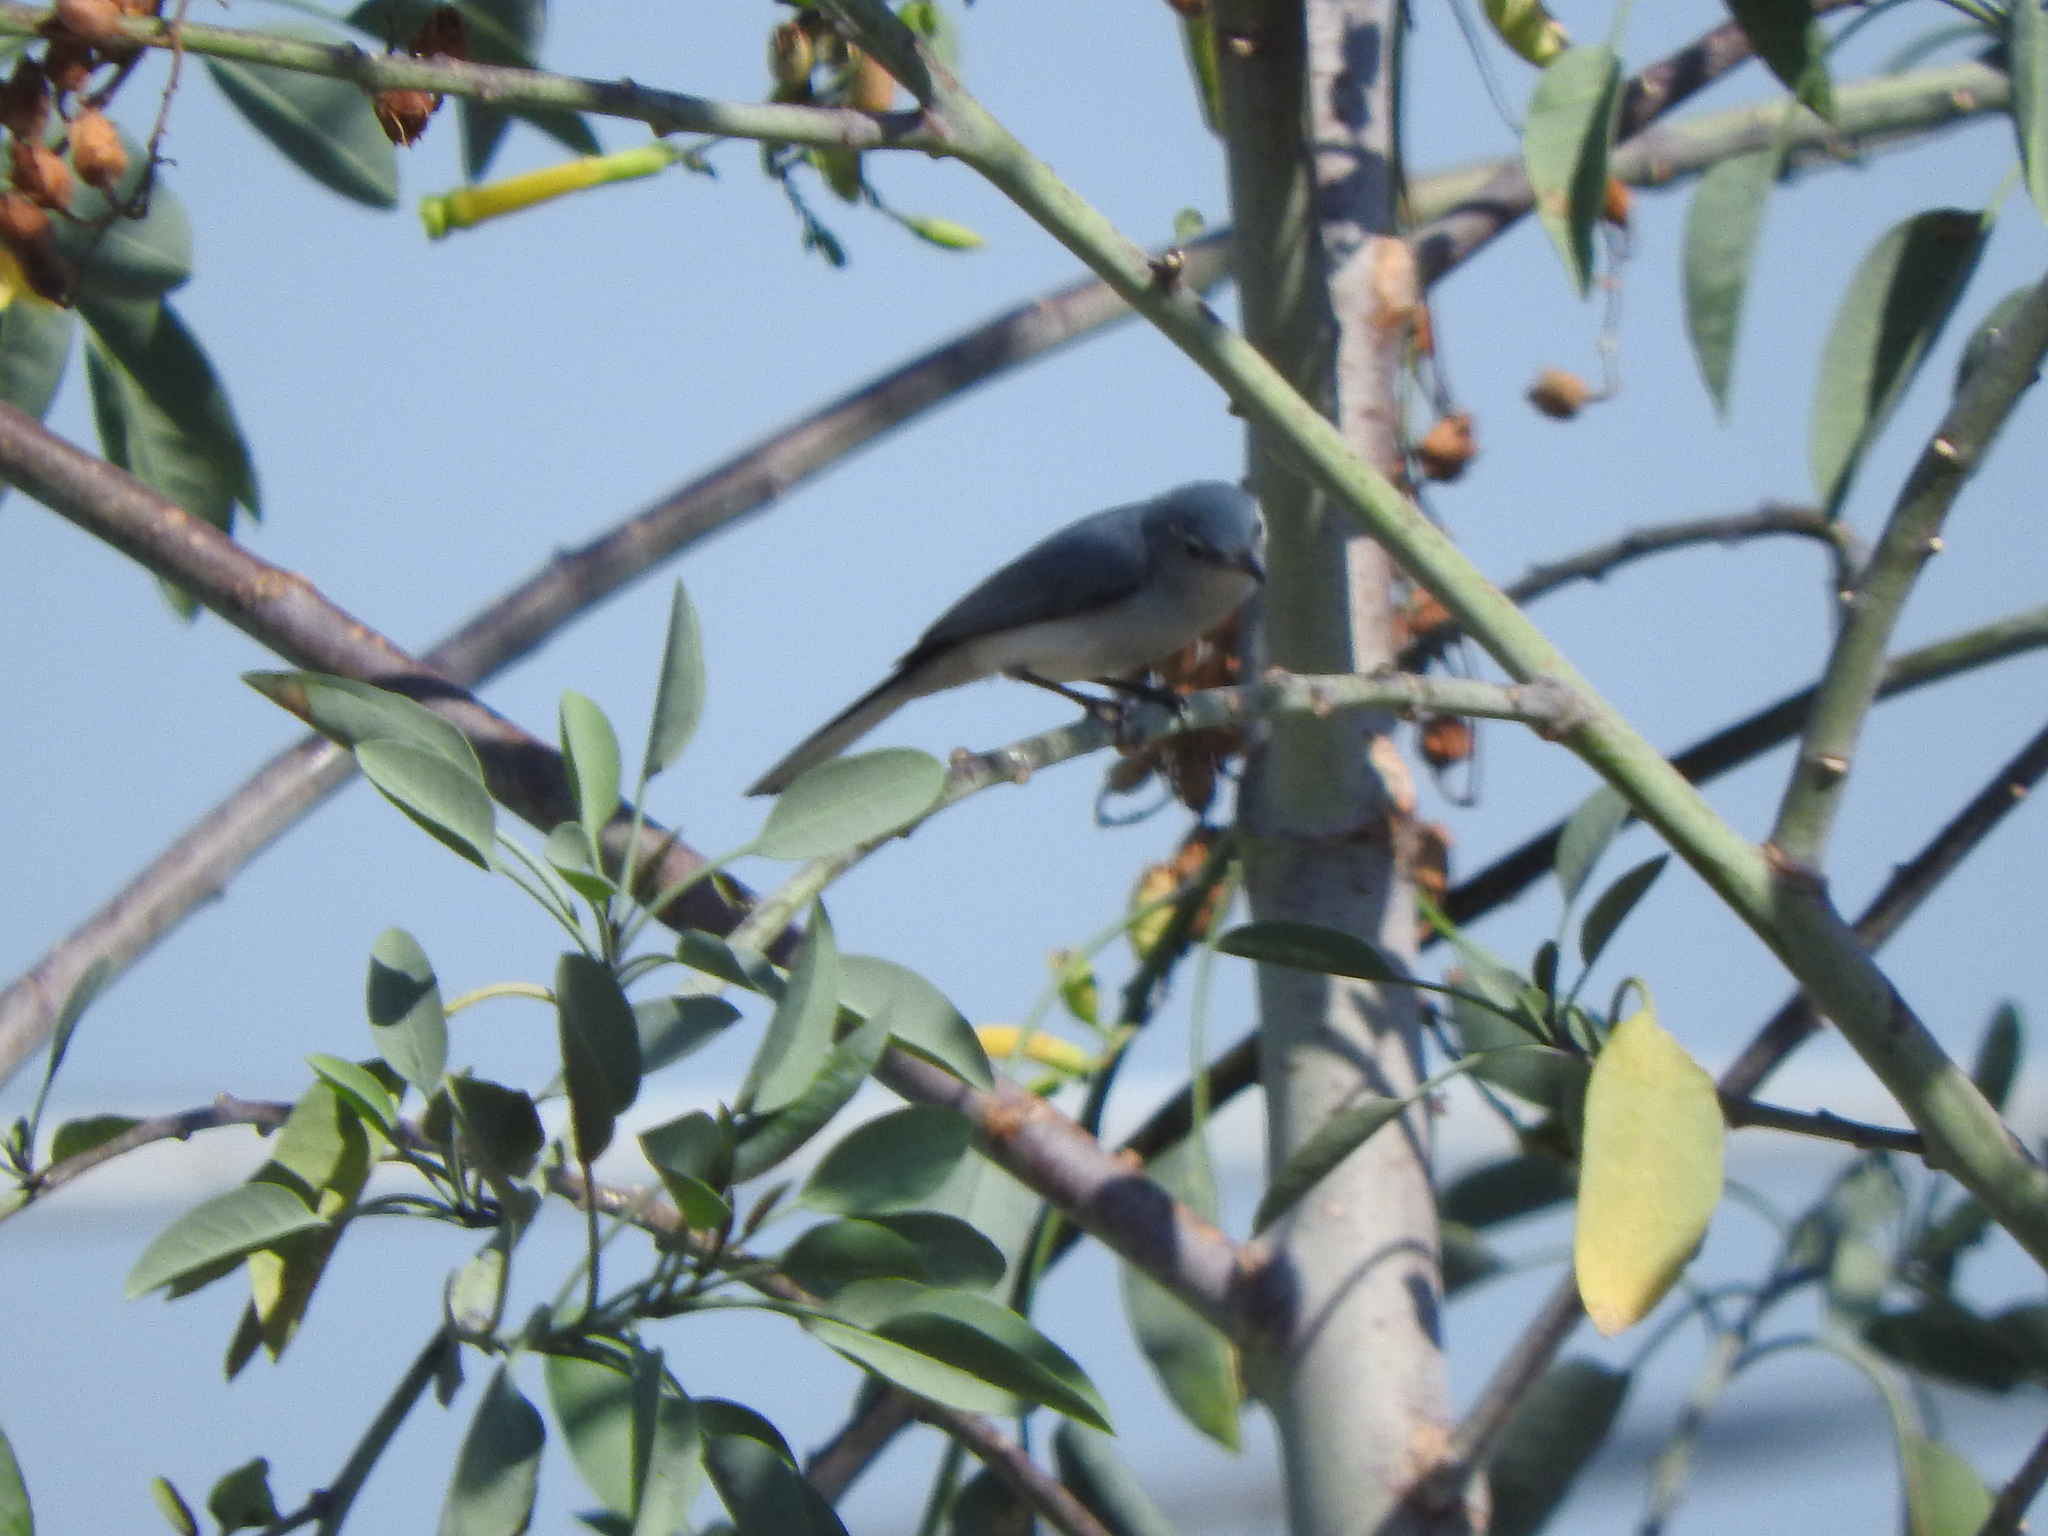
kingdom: Animalia
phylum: Chordata
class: Aves
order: Passeriformes
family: Polioptilidae
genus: Polioptila
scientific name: Polioptila caerulea
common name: Blue-gray gnatcatcher
